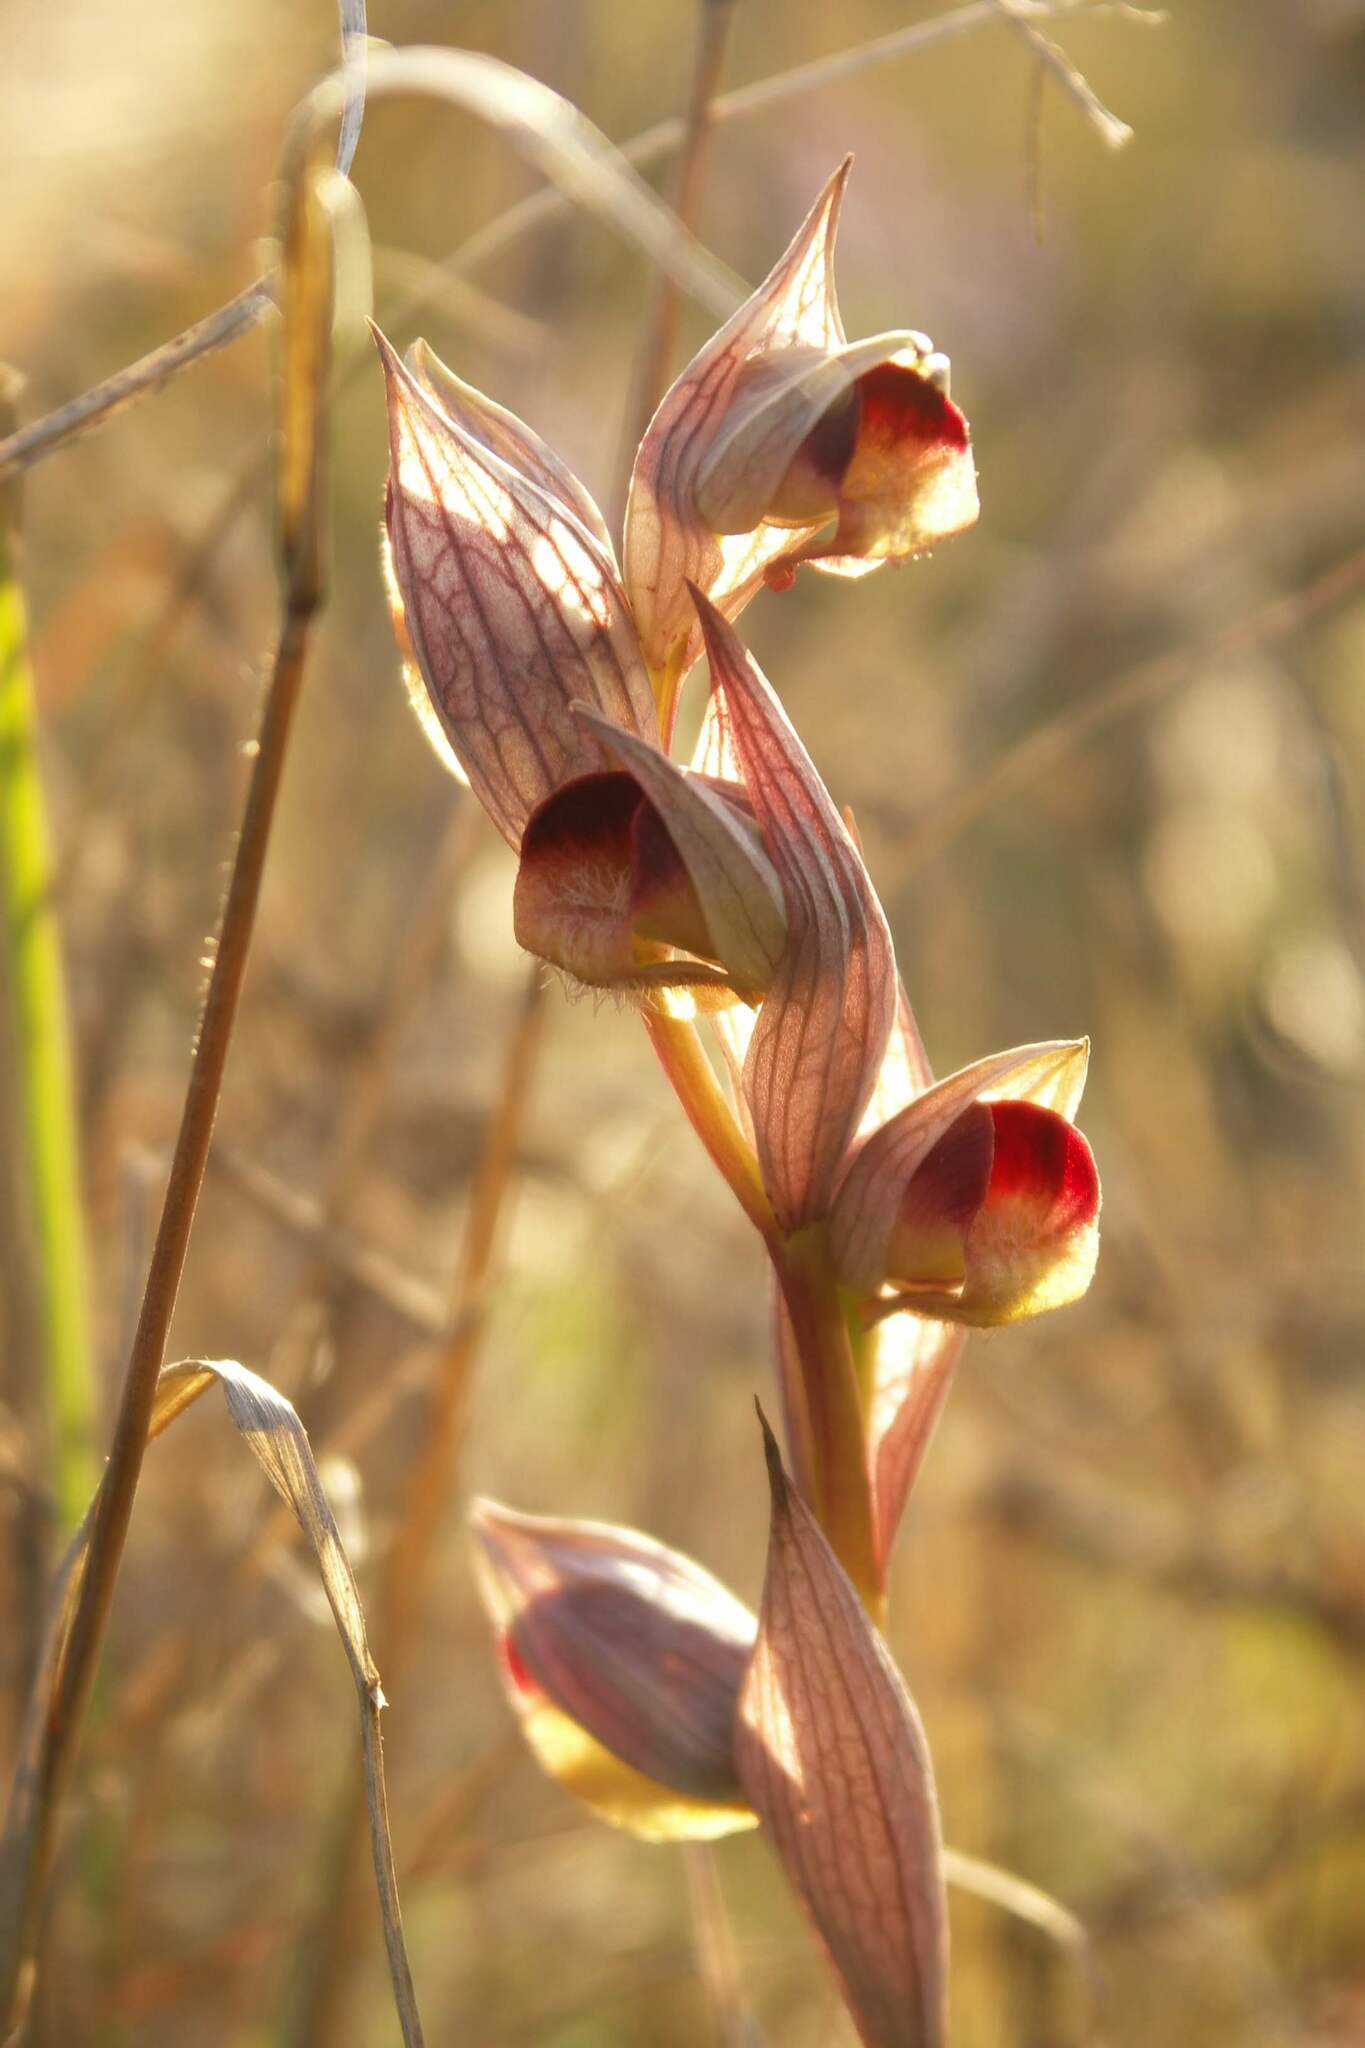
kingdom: Plantae
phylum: Tracheophyta
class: Liliopsida
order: Asparagales
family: Orchidaceae
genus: Serapias
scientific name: Serapias orientalis
